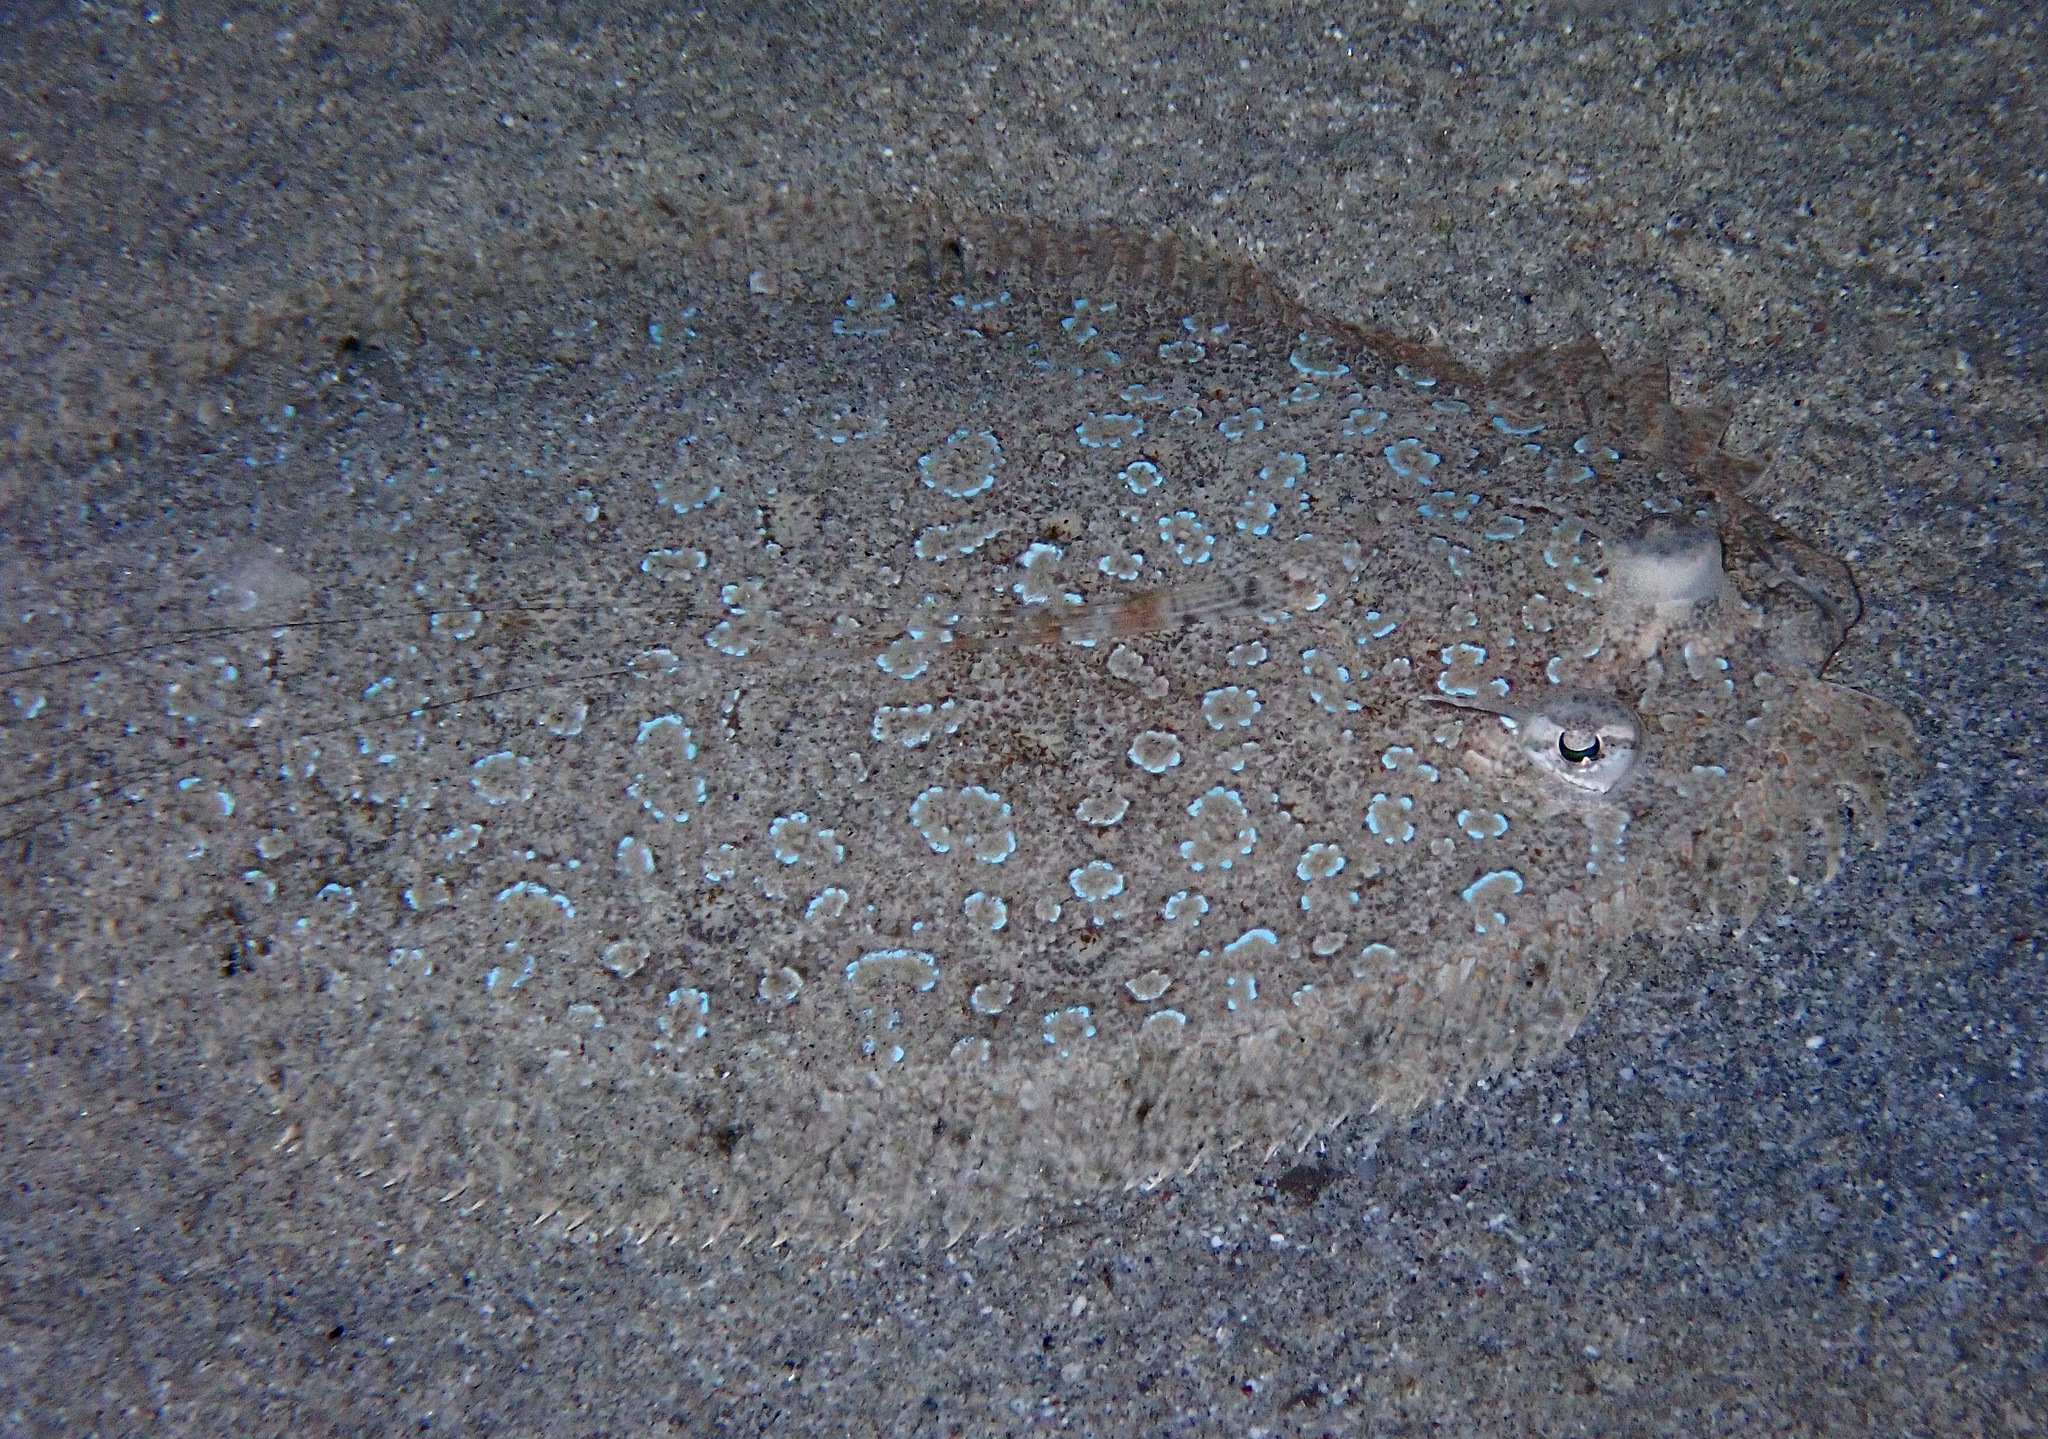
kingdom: Animalia
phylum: Chordata
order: Pleuronectiformes
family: Bothidae
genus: Bothus
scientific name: Bothus pantherinus
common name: Leopard flounder
